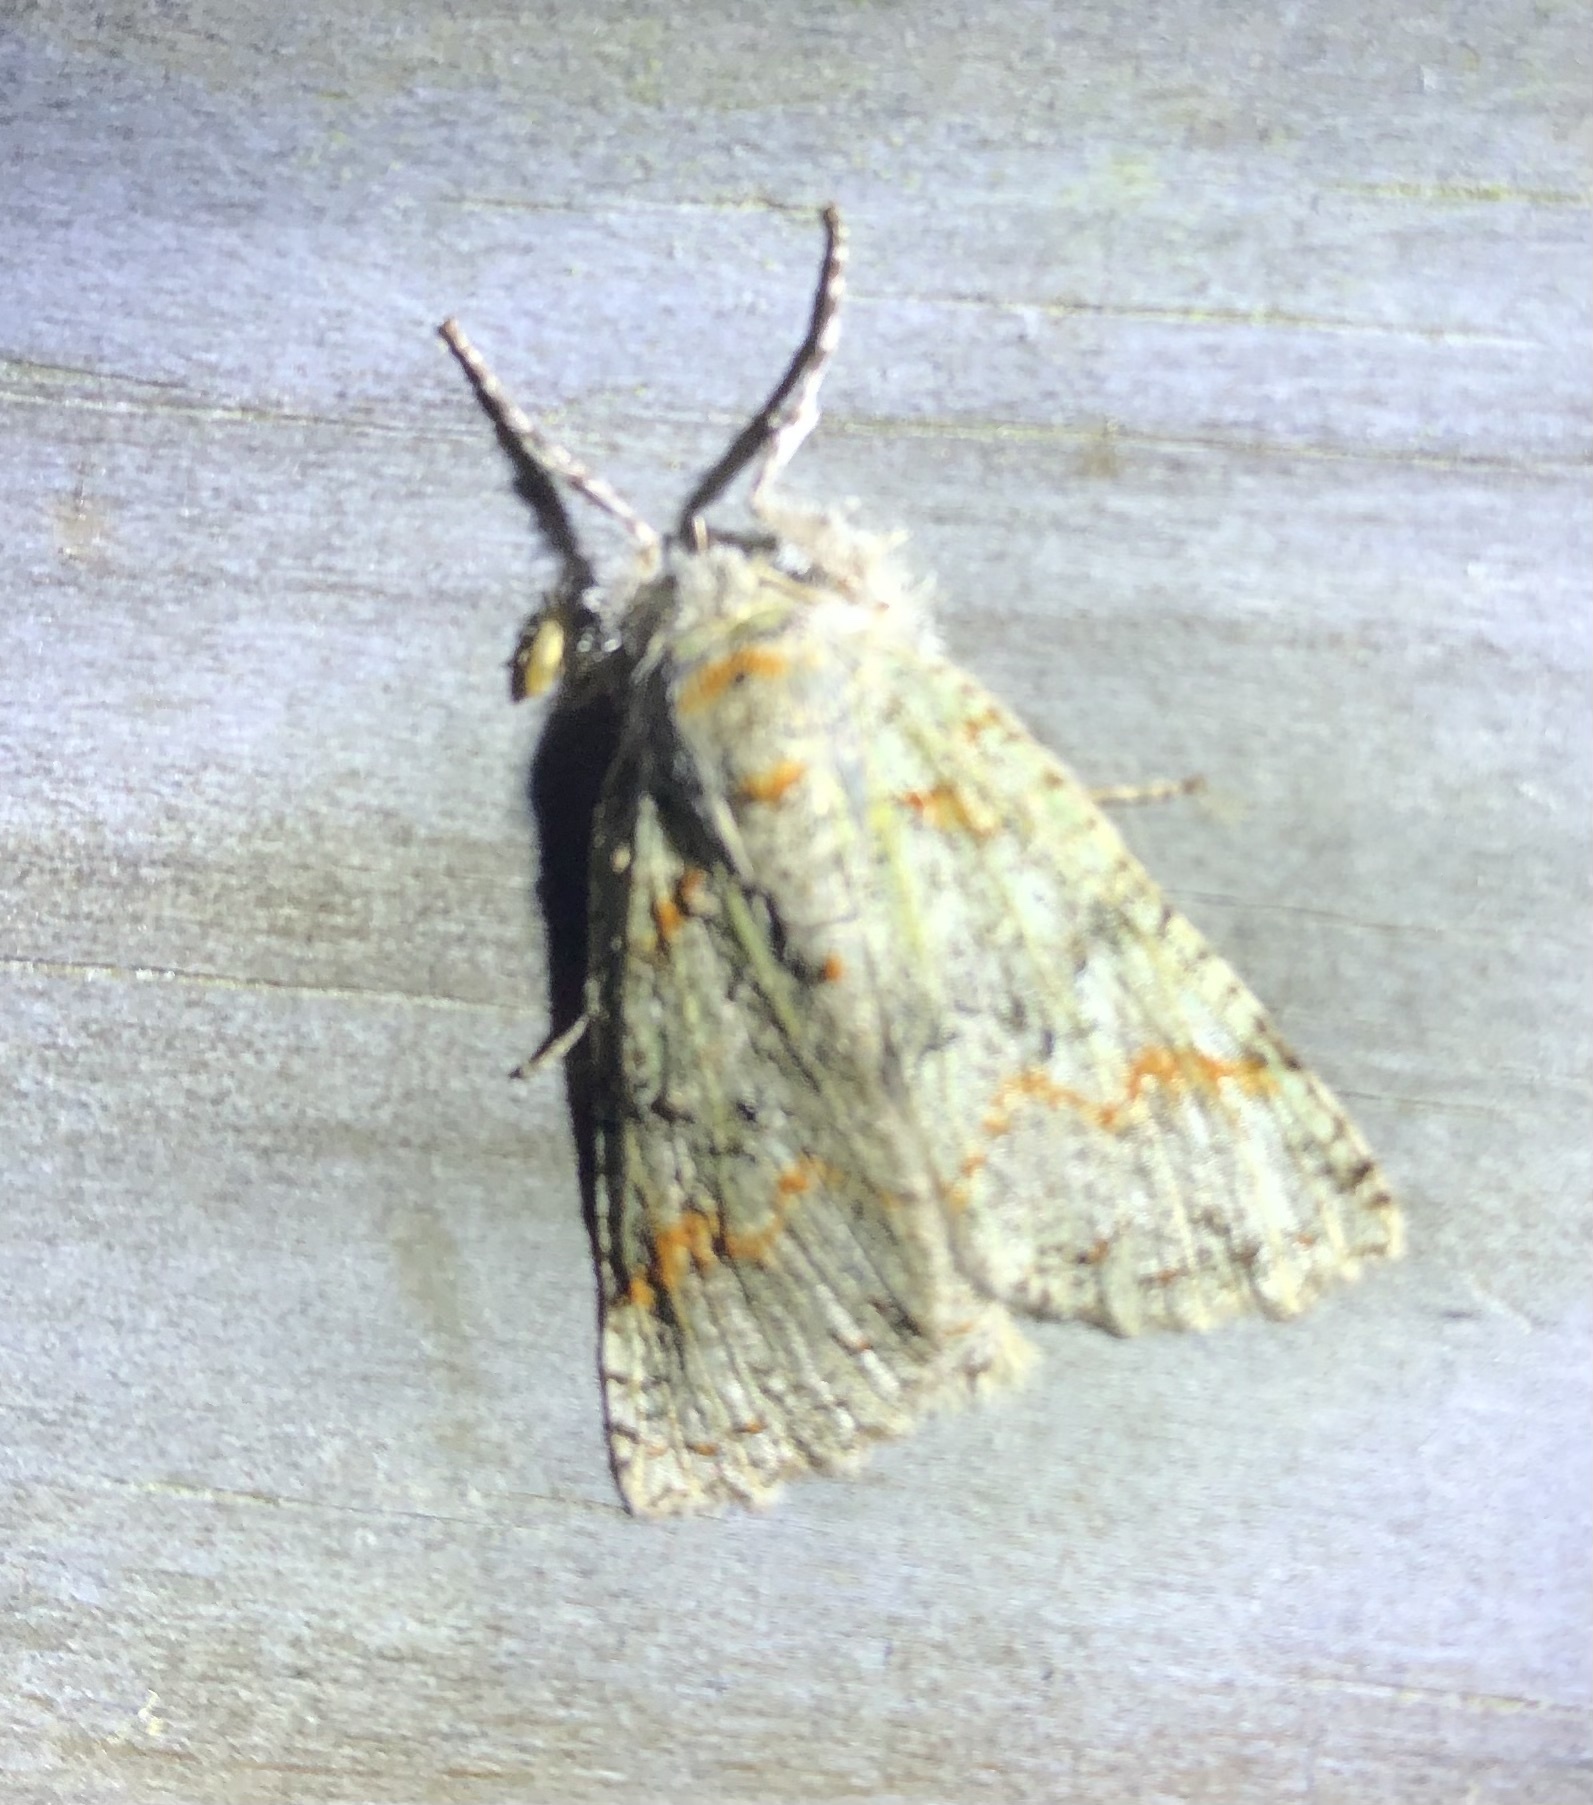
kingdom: Animalia
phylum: Arthropoda
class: Insecta
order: Lepidoptera
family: Geometridae
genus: Declana
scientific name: Declana floccosa
